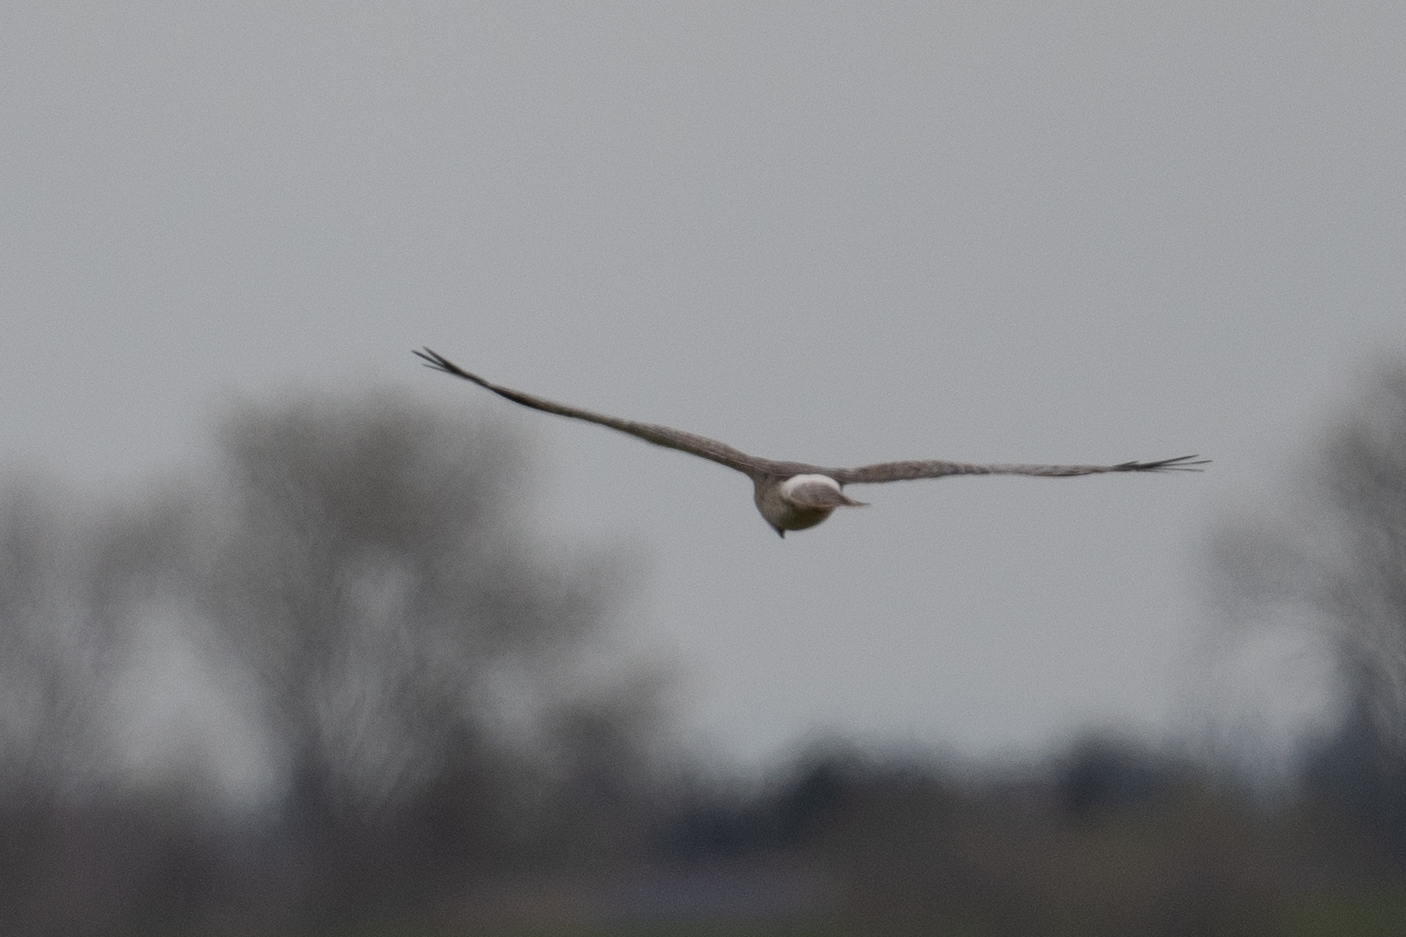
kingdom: Animalia
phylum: Chordata
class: Aves
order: Accipitriformes
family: Accipitridae
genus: Circus
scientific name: Circus cyaneus
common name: Hen harrier
